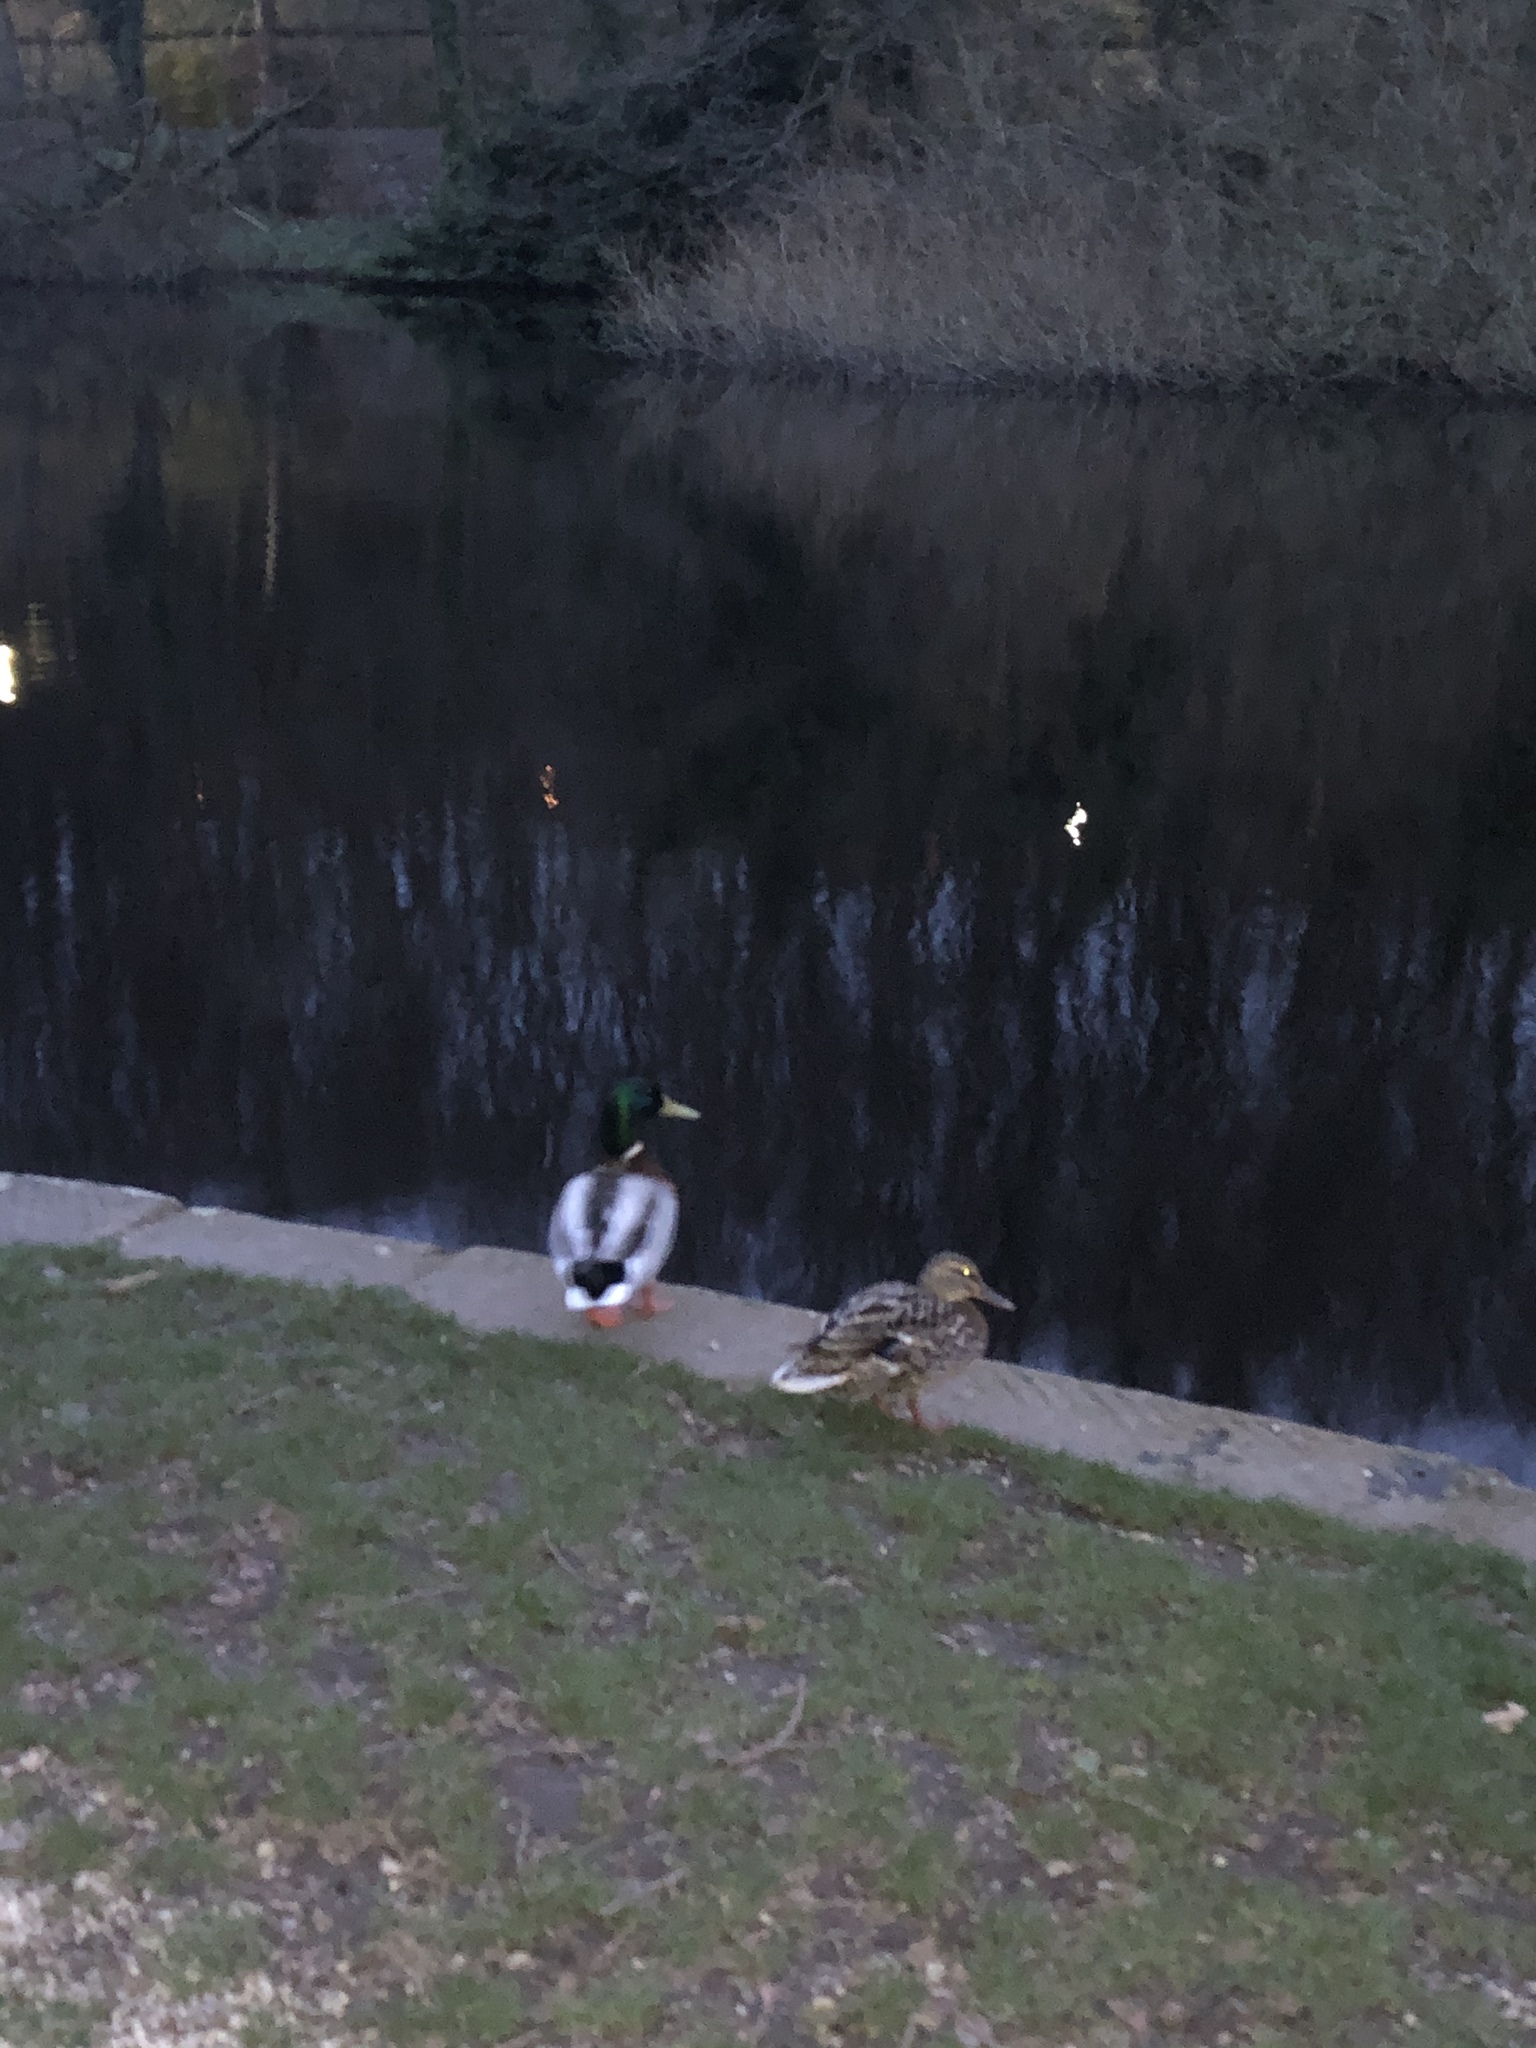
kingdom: Animalia
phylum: Chordata
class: Aves
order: Anseriformes
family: Anatidae
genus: Anas
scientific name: Anas platyrhynchos
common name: Mallard
